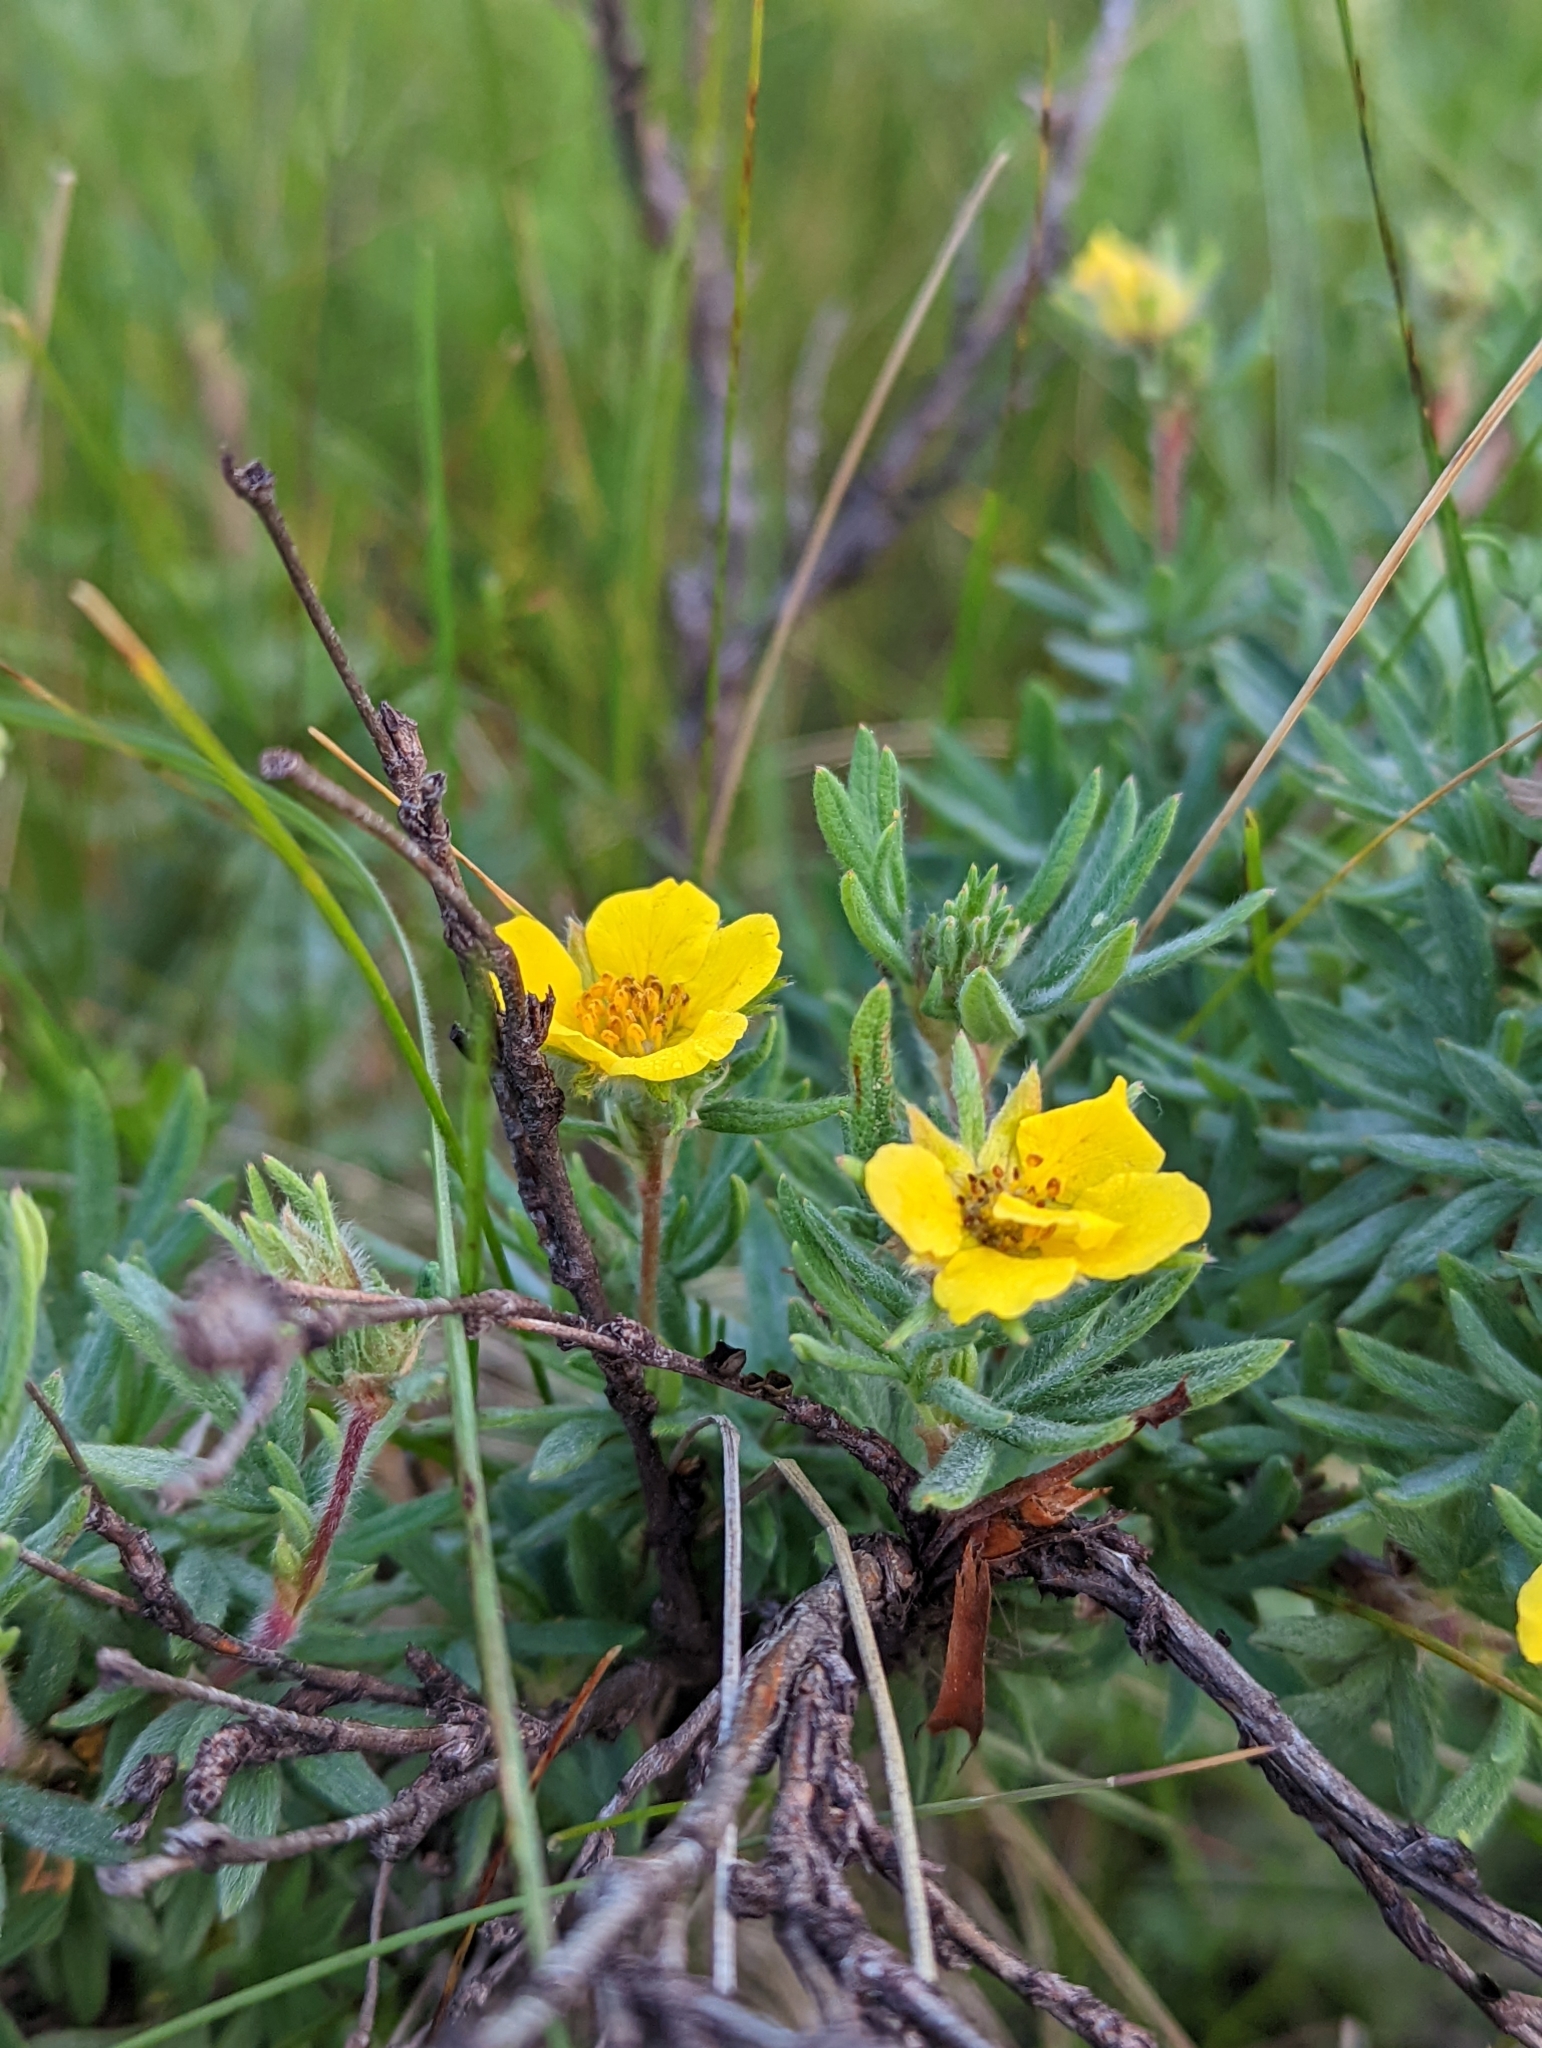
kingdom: Plantae
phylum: Tracheophyta
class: Magnoliopsida
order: Rosales
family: Rosaceae
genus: Dasiphora
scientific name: Dasiphora fruticosa
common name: Shrubby cinquefoil
